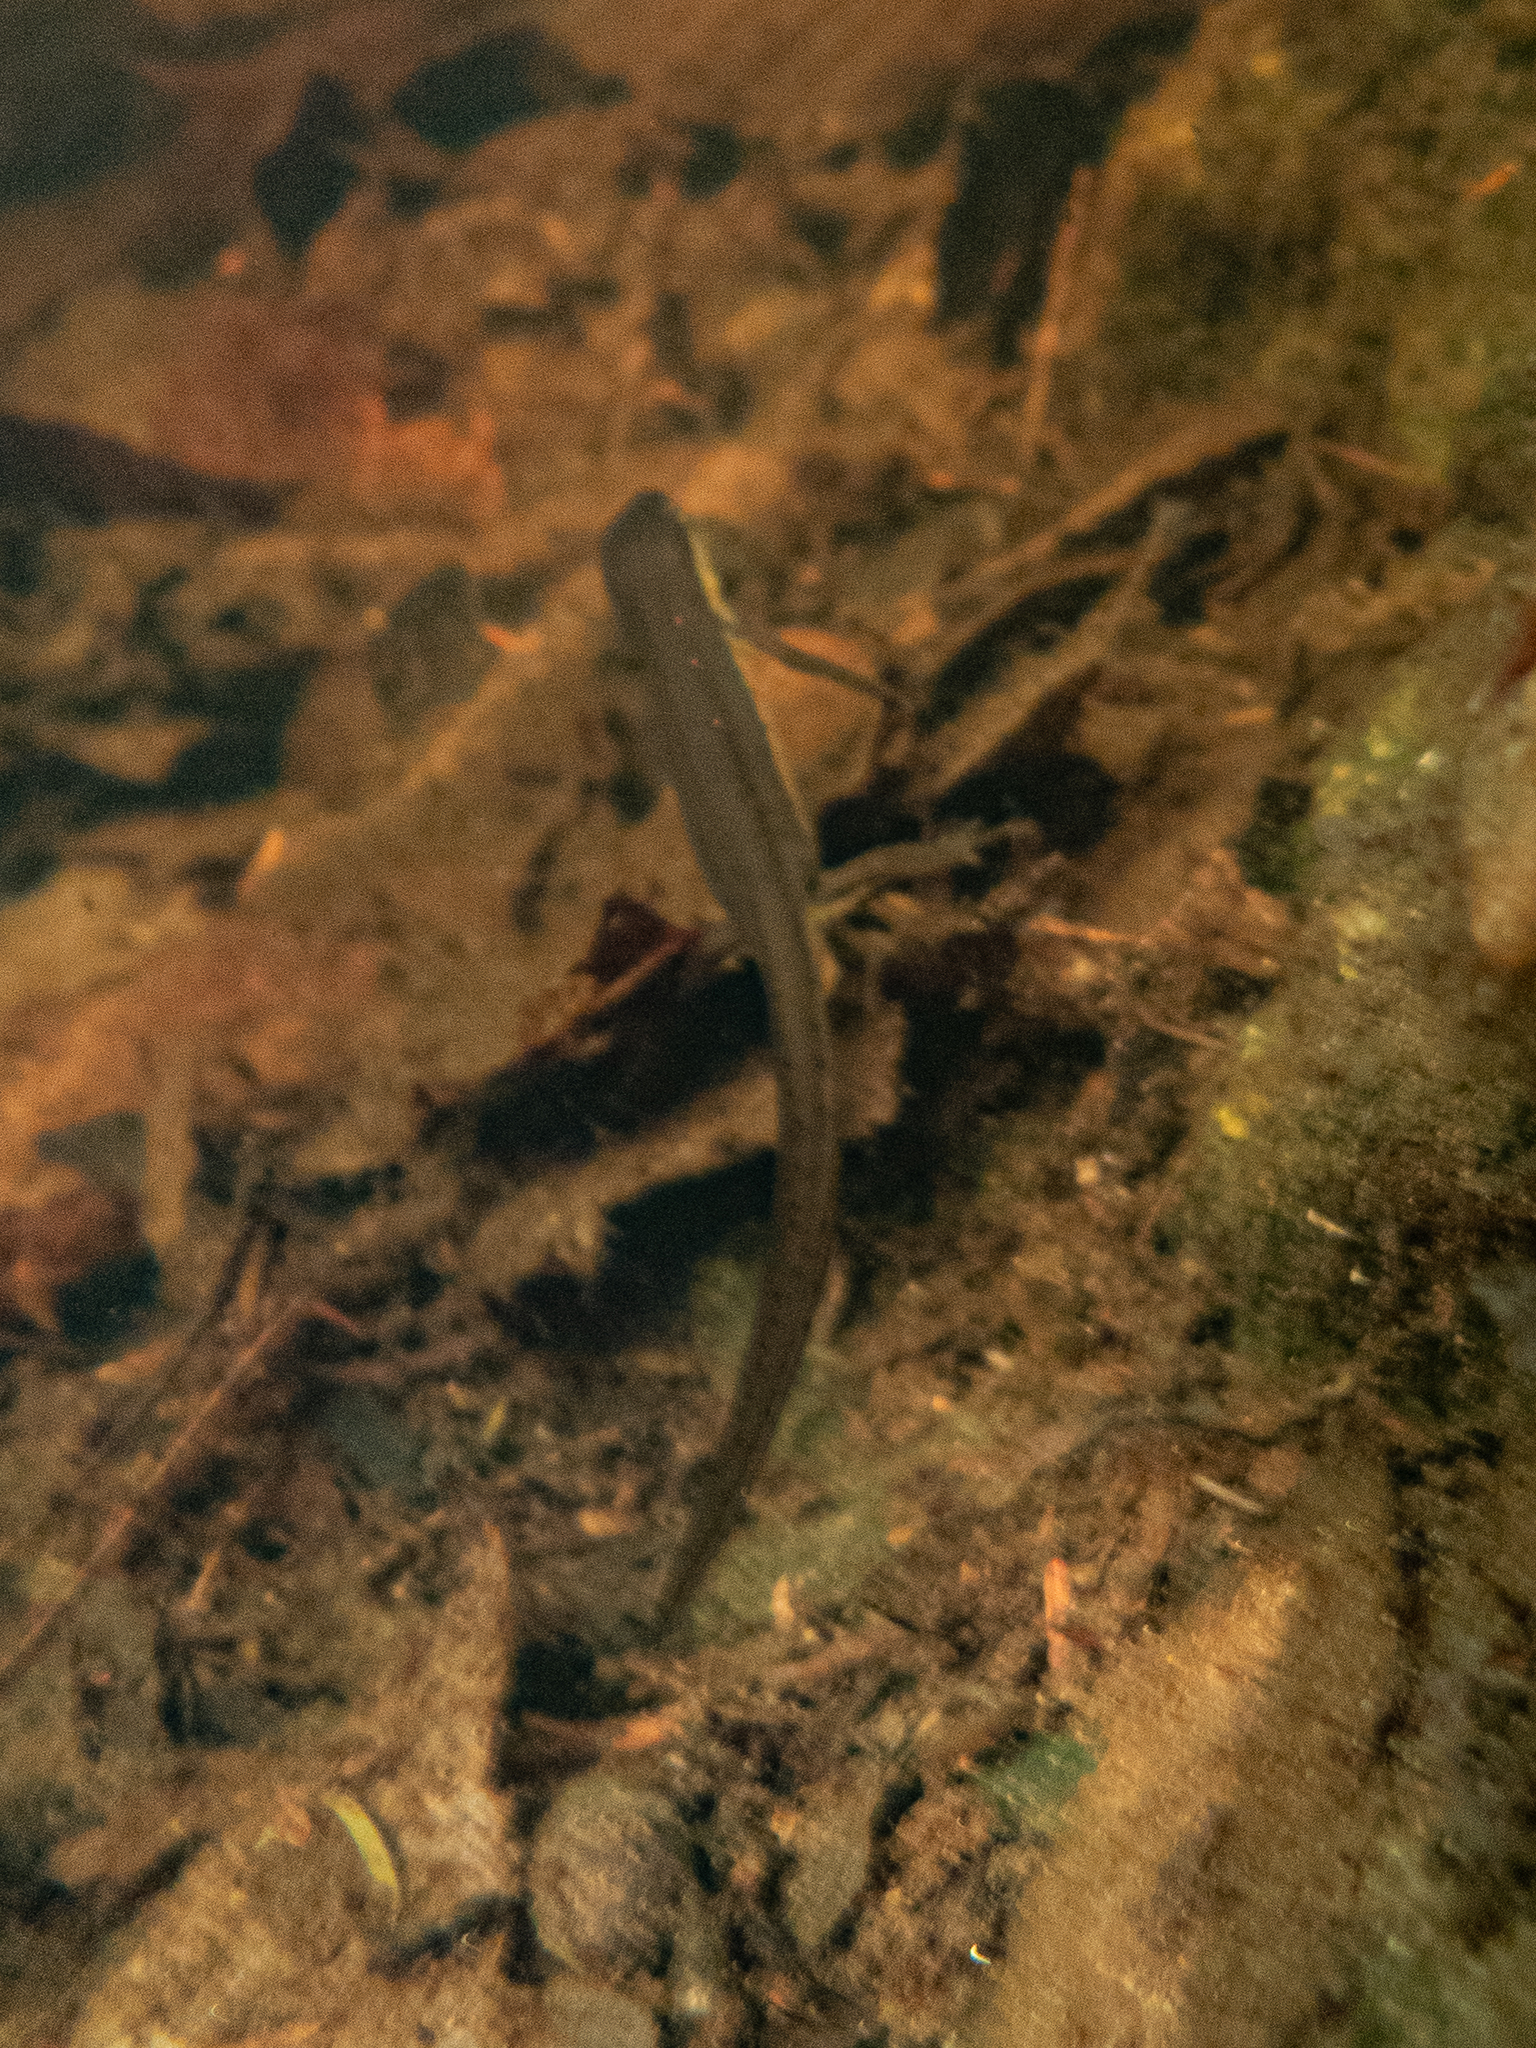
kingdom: Animalia
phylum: Chordata
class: Amphibia
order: Caudata
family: Salamandridae
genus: Notophthalmus
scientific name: Notophthalmus viridescens
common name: Eastern newt
